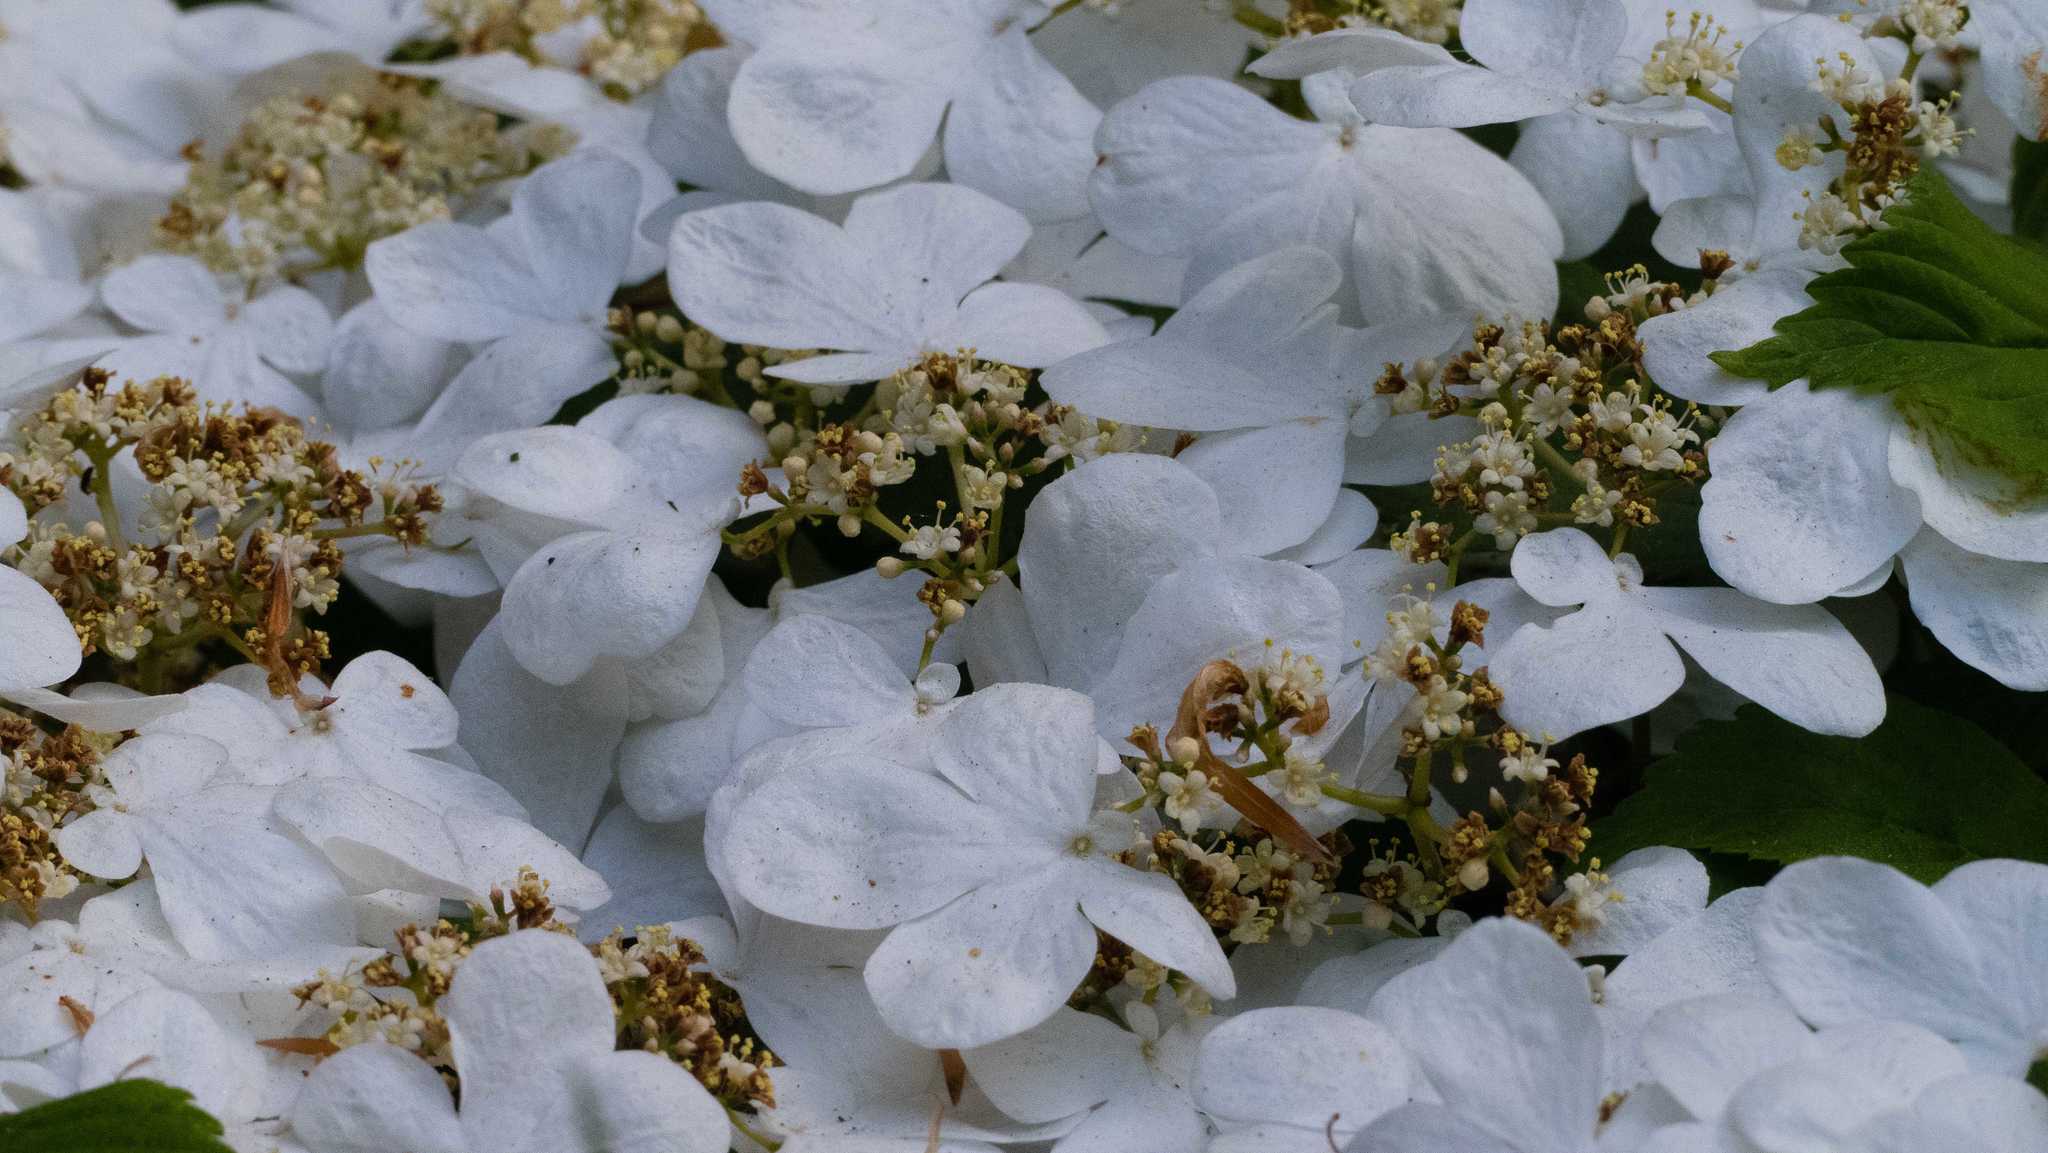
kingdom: Plantae
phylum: Tracheophyta
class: Magnoliopsida
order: Dipsacales
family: Viburnaceae
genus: Viburnum
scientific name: Viburnum plicatum
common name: Japanese snowball
